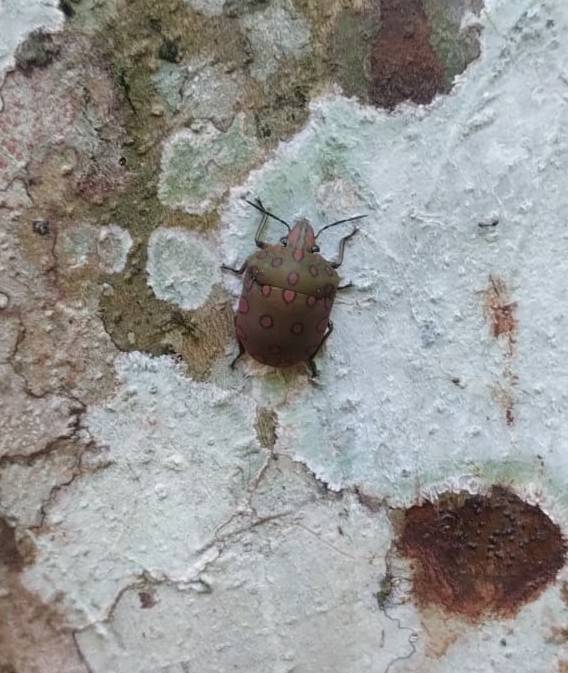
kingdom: Animalia
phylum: Arthropoda
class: Insecta
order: Hemiptera
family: Scutelleridae
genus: Pachycoris
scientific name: Pachycoris torridus
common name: Torrid jewel bug
